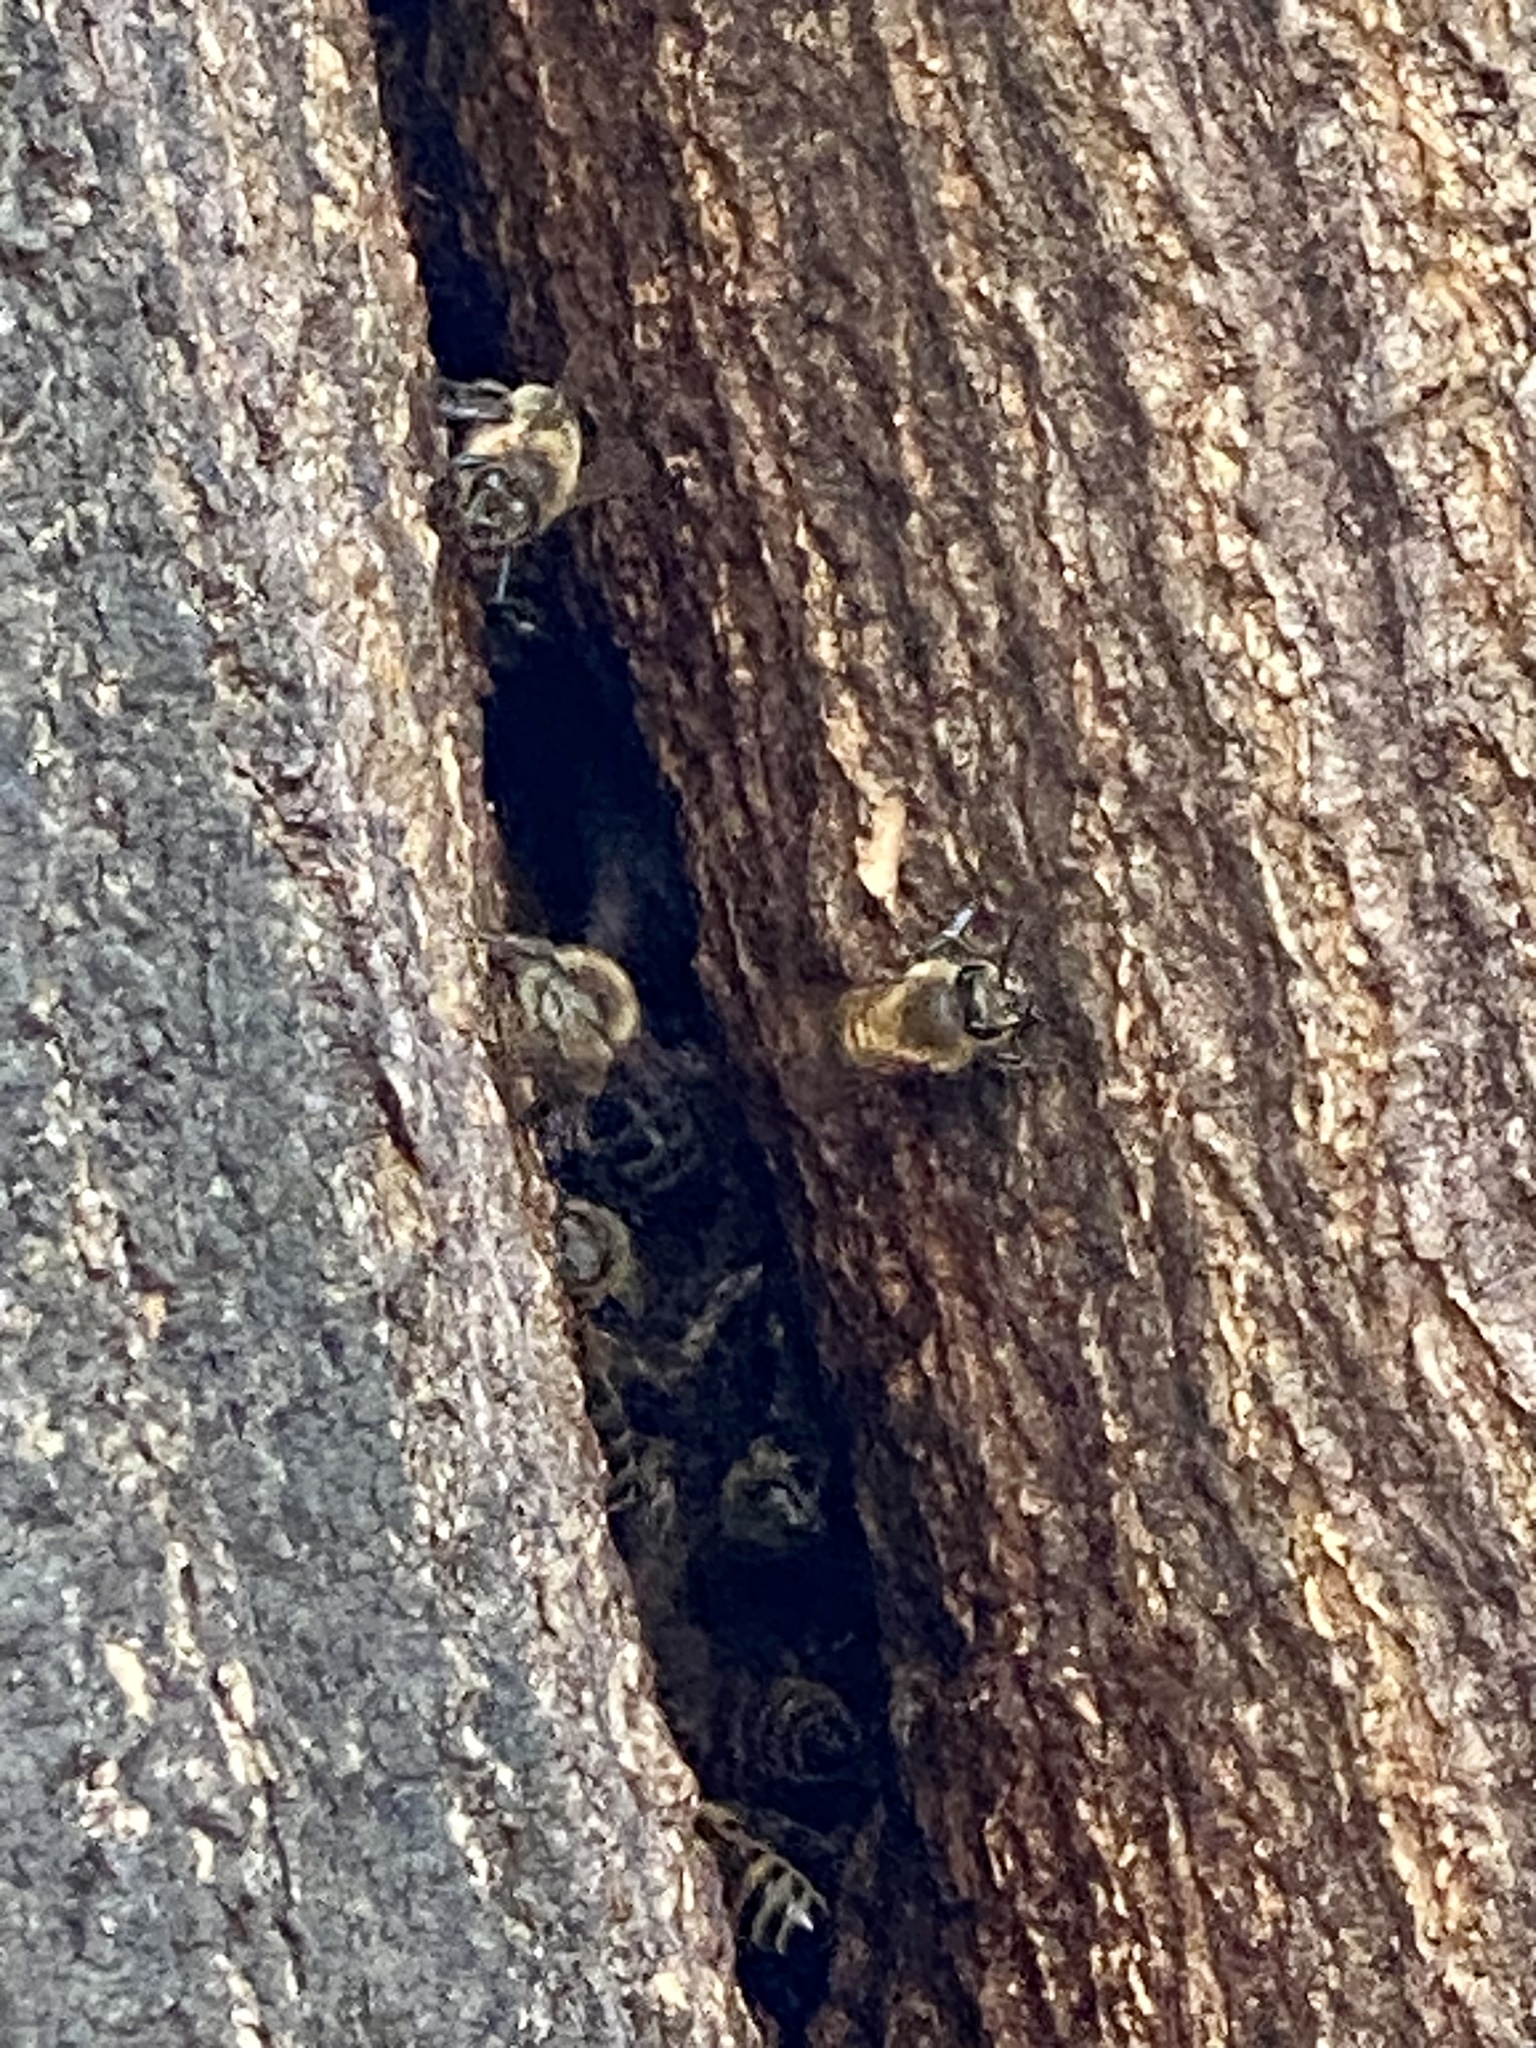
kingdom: Animalia
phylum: Arthropoda
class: Insecta
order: Hymenoptera
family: Apidae
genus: Apis
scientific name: Apis mellifera
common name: Honey bee
